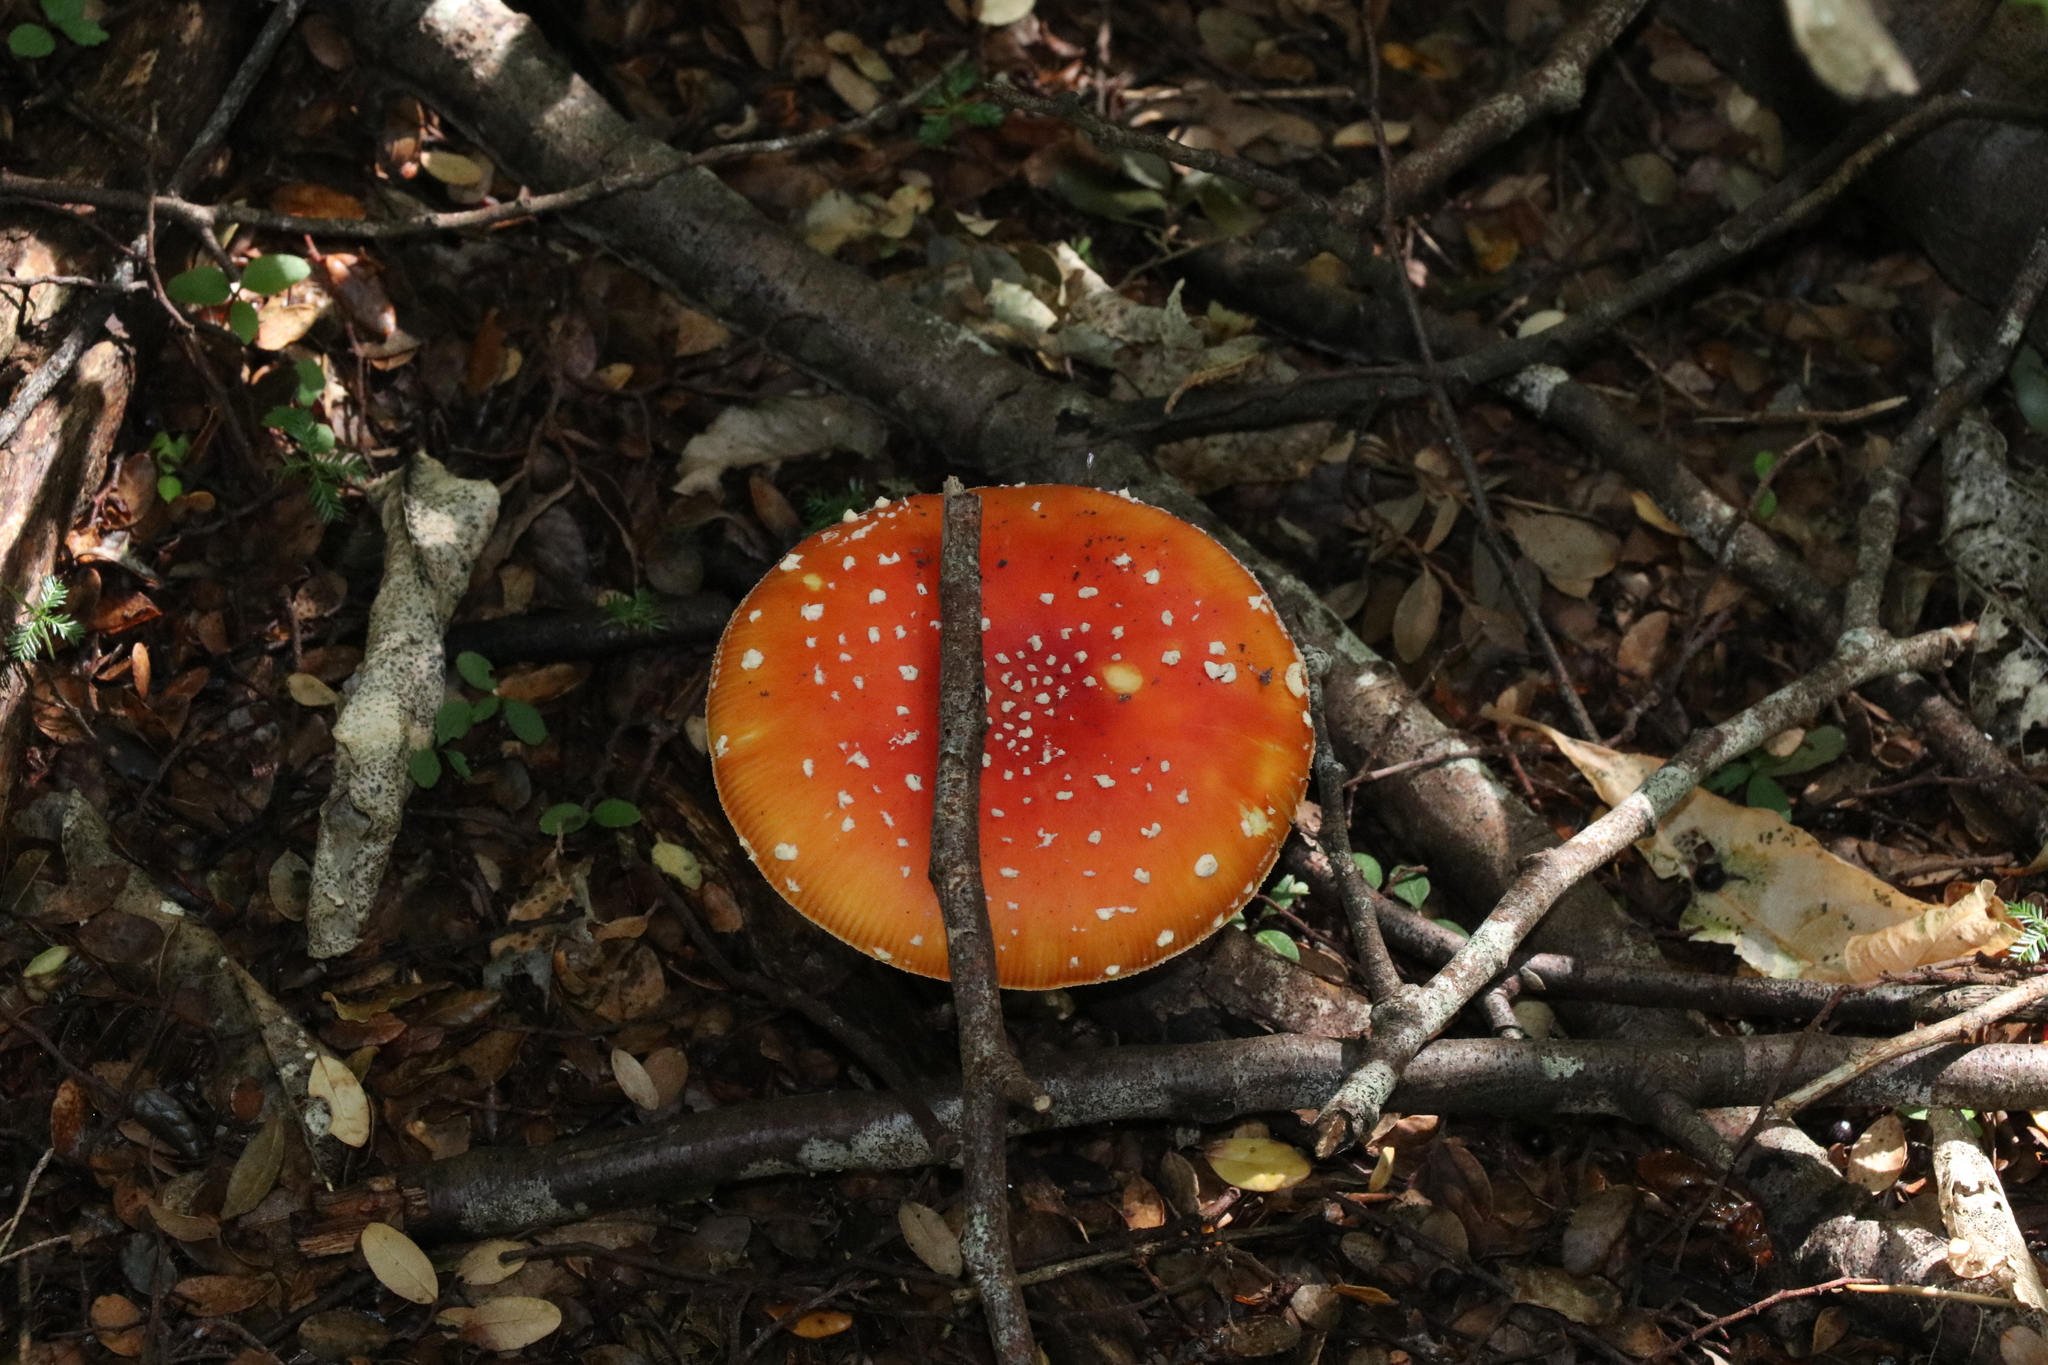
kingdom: Fungi
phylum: Basidiomycota
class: Agaricomycetes
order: Agaricales
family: Amanitaceae
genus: Amanita
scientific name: Amanita muscaria
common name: Fly agaric
